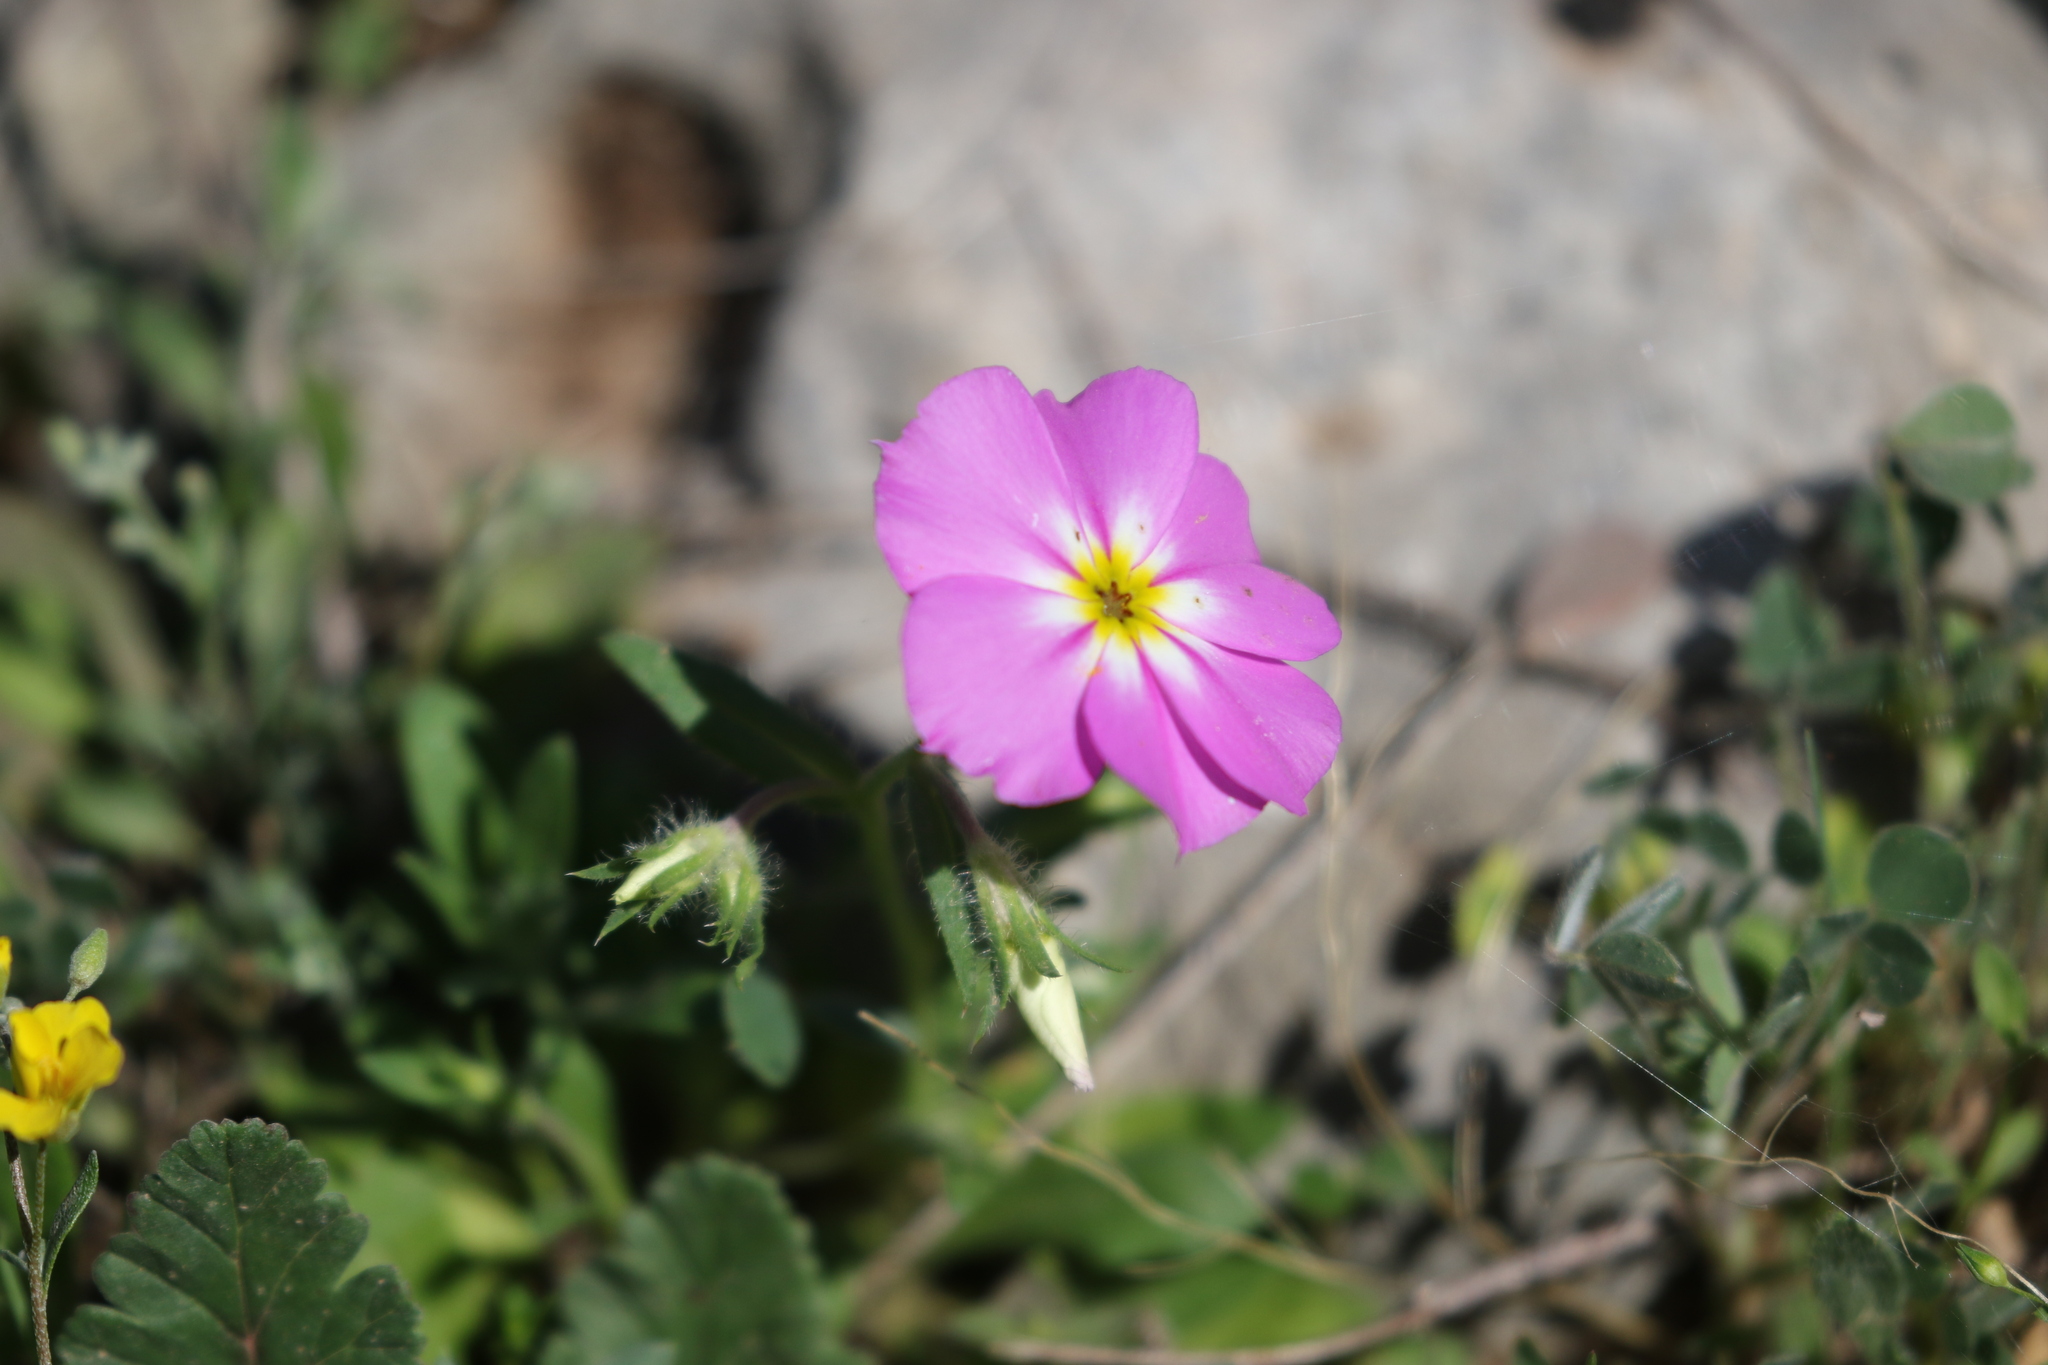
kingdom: Plantae
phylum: Tracheophyta
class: Magnoliopsida
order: Ericales
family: Polemoniaceae
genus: Phlox
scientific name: Phlox roemeriana
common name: Roemer's phlox
